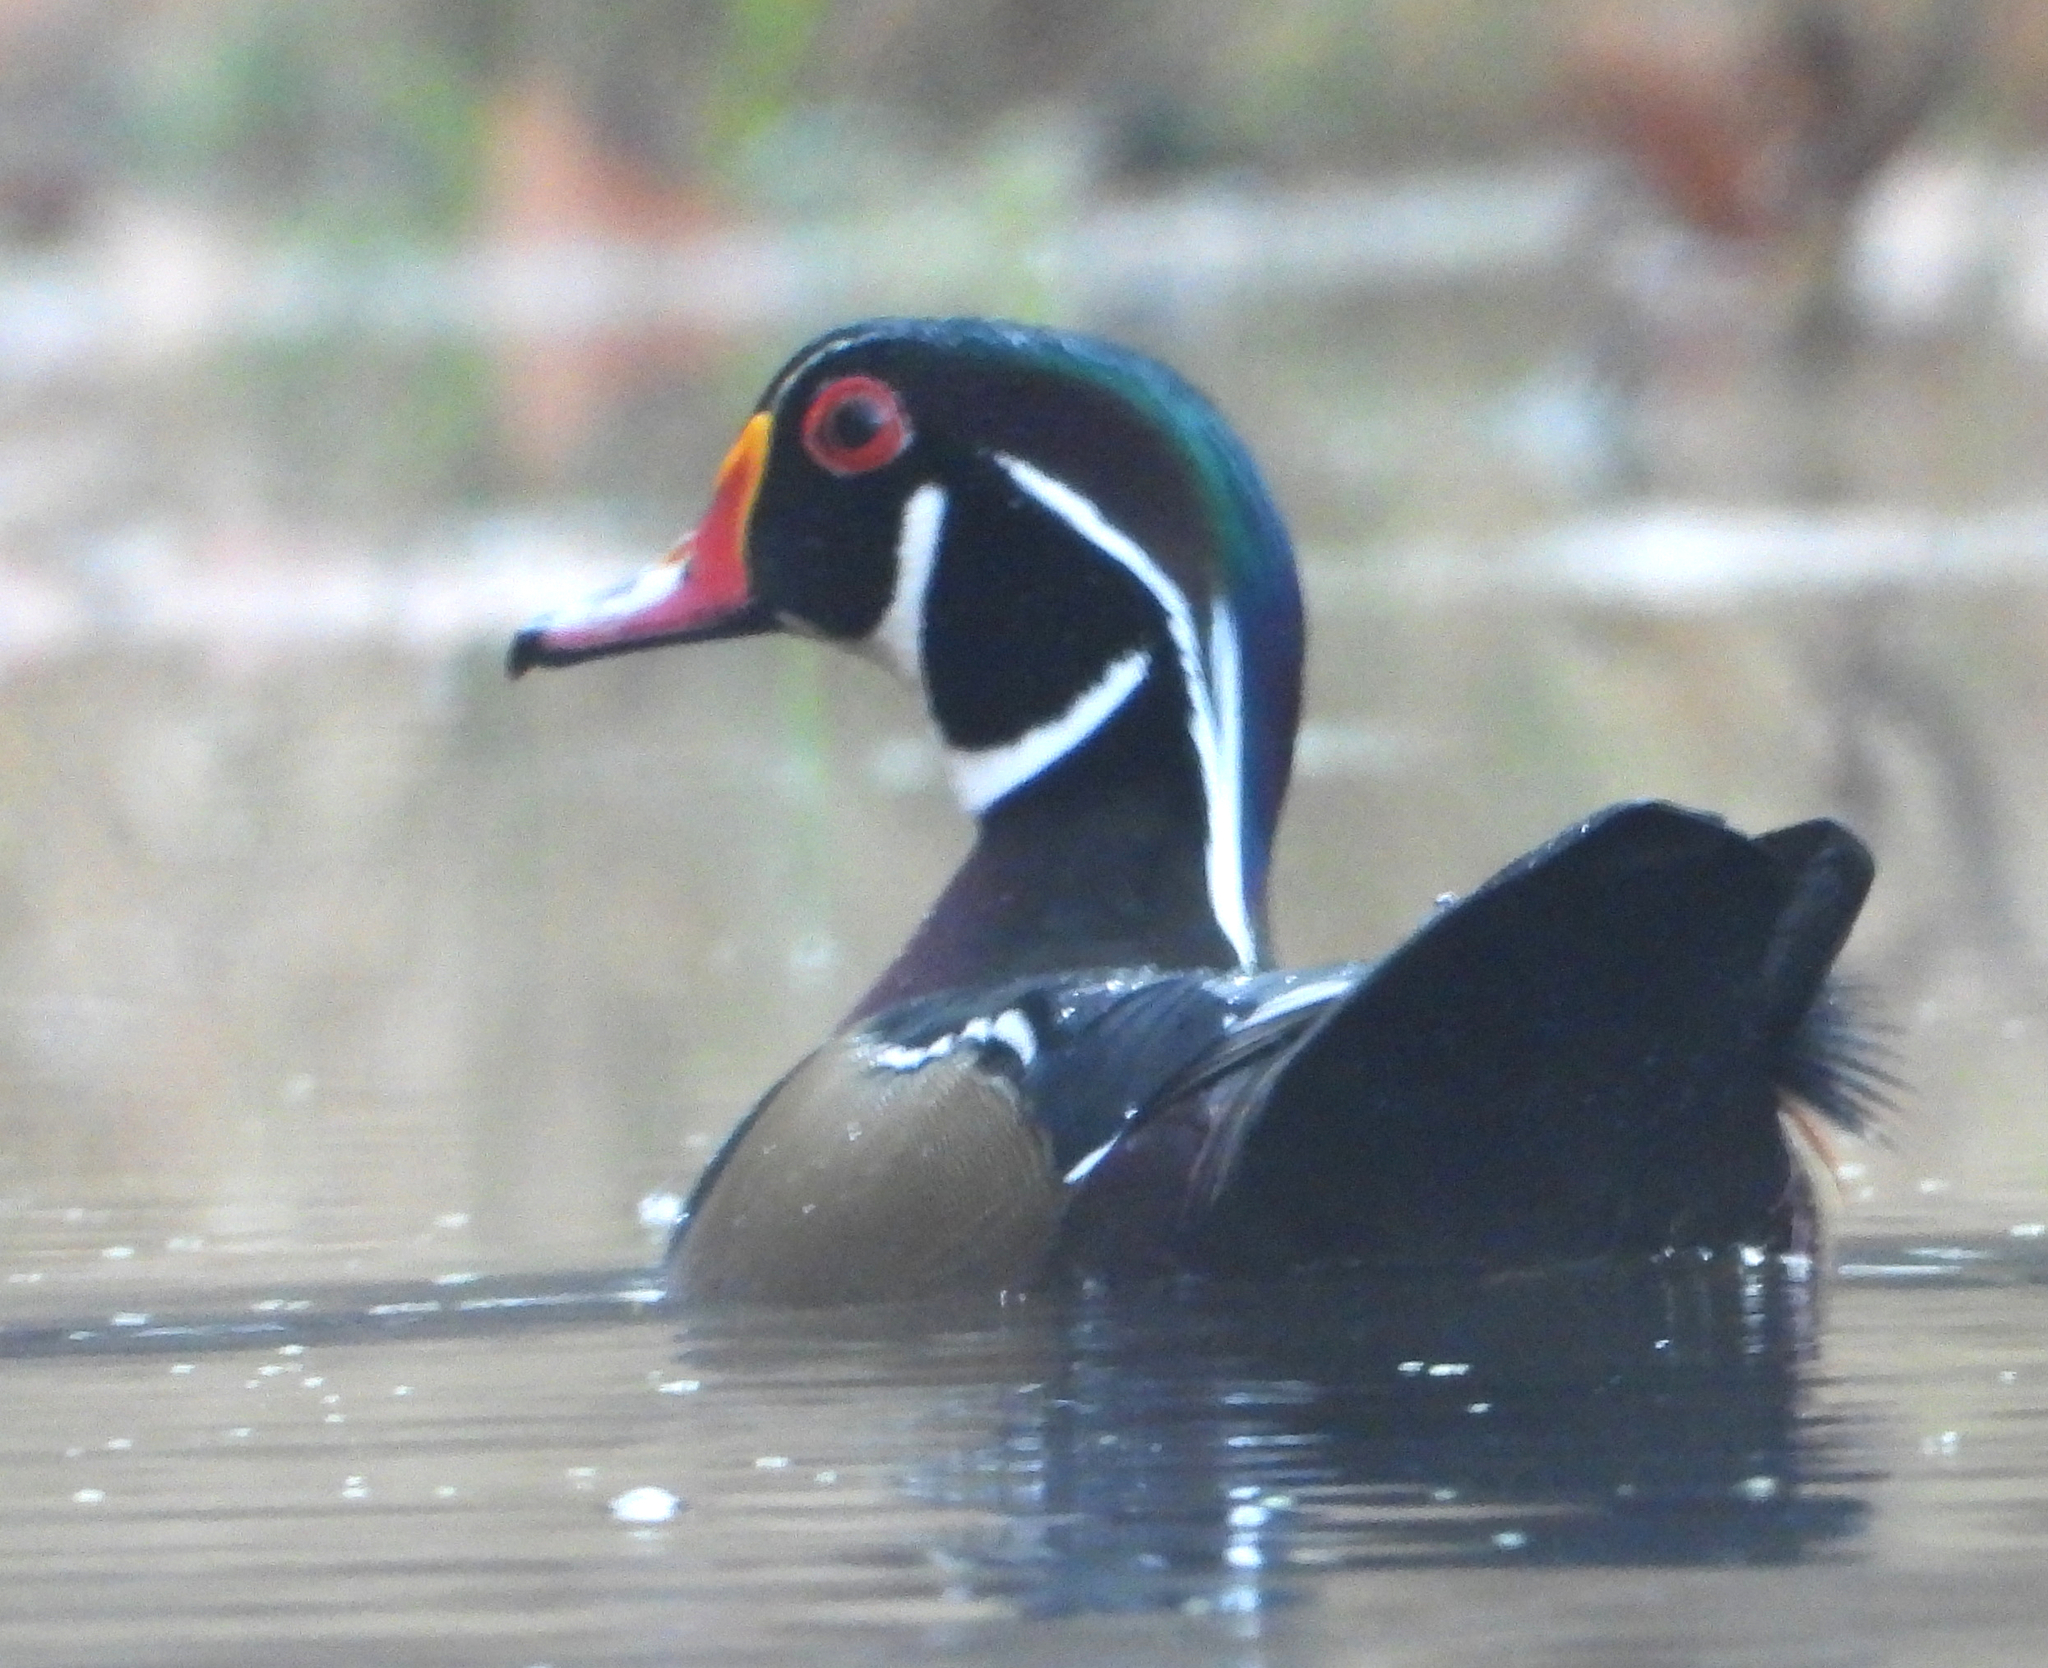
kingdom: Animalia
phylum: Chordata
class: Aves
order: Anseriformes
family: Anatidae
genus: Aix
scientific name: Aix sponsa
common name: Wood duck
